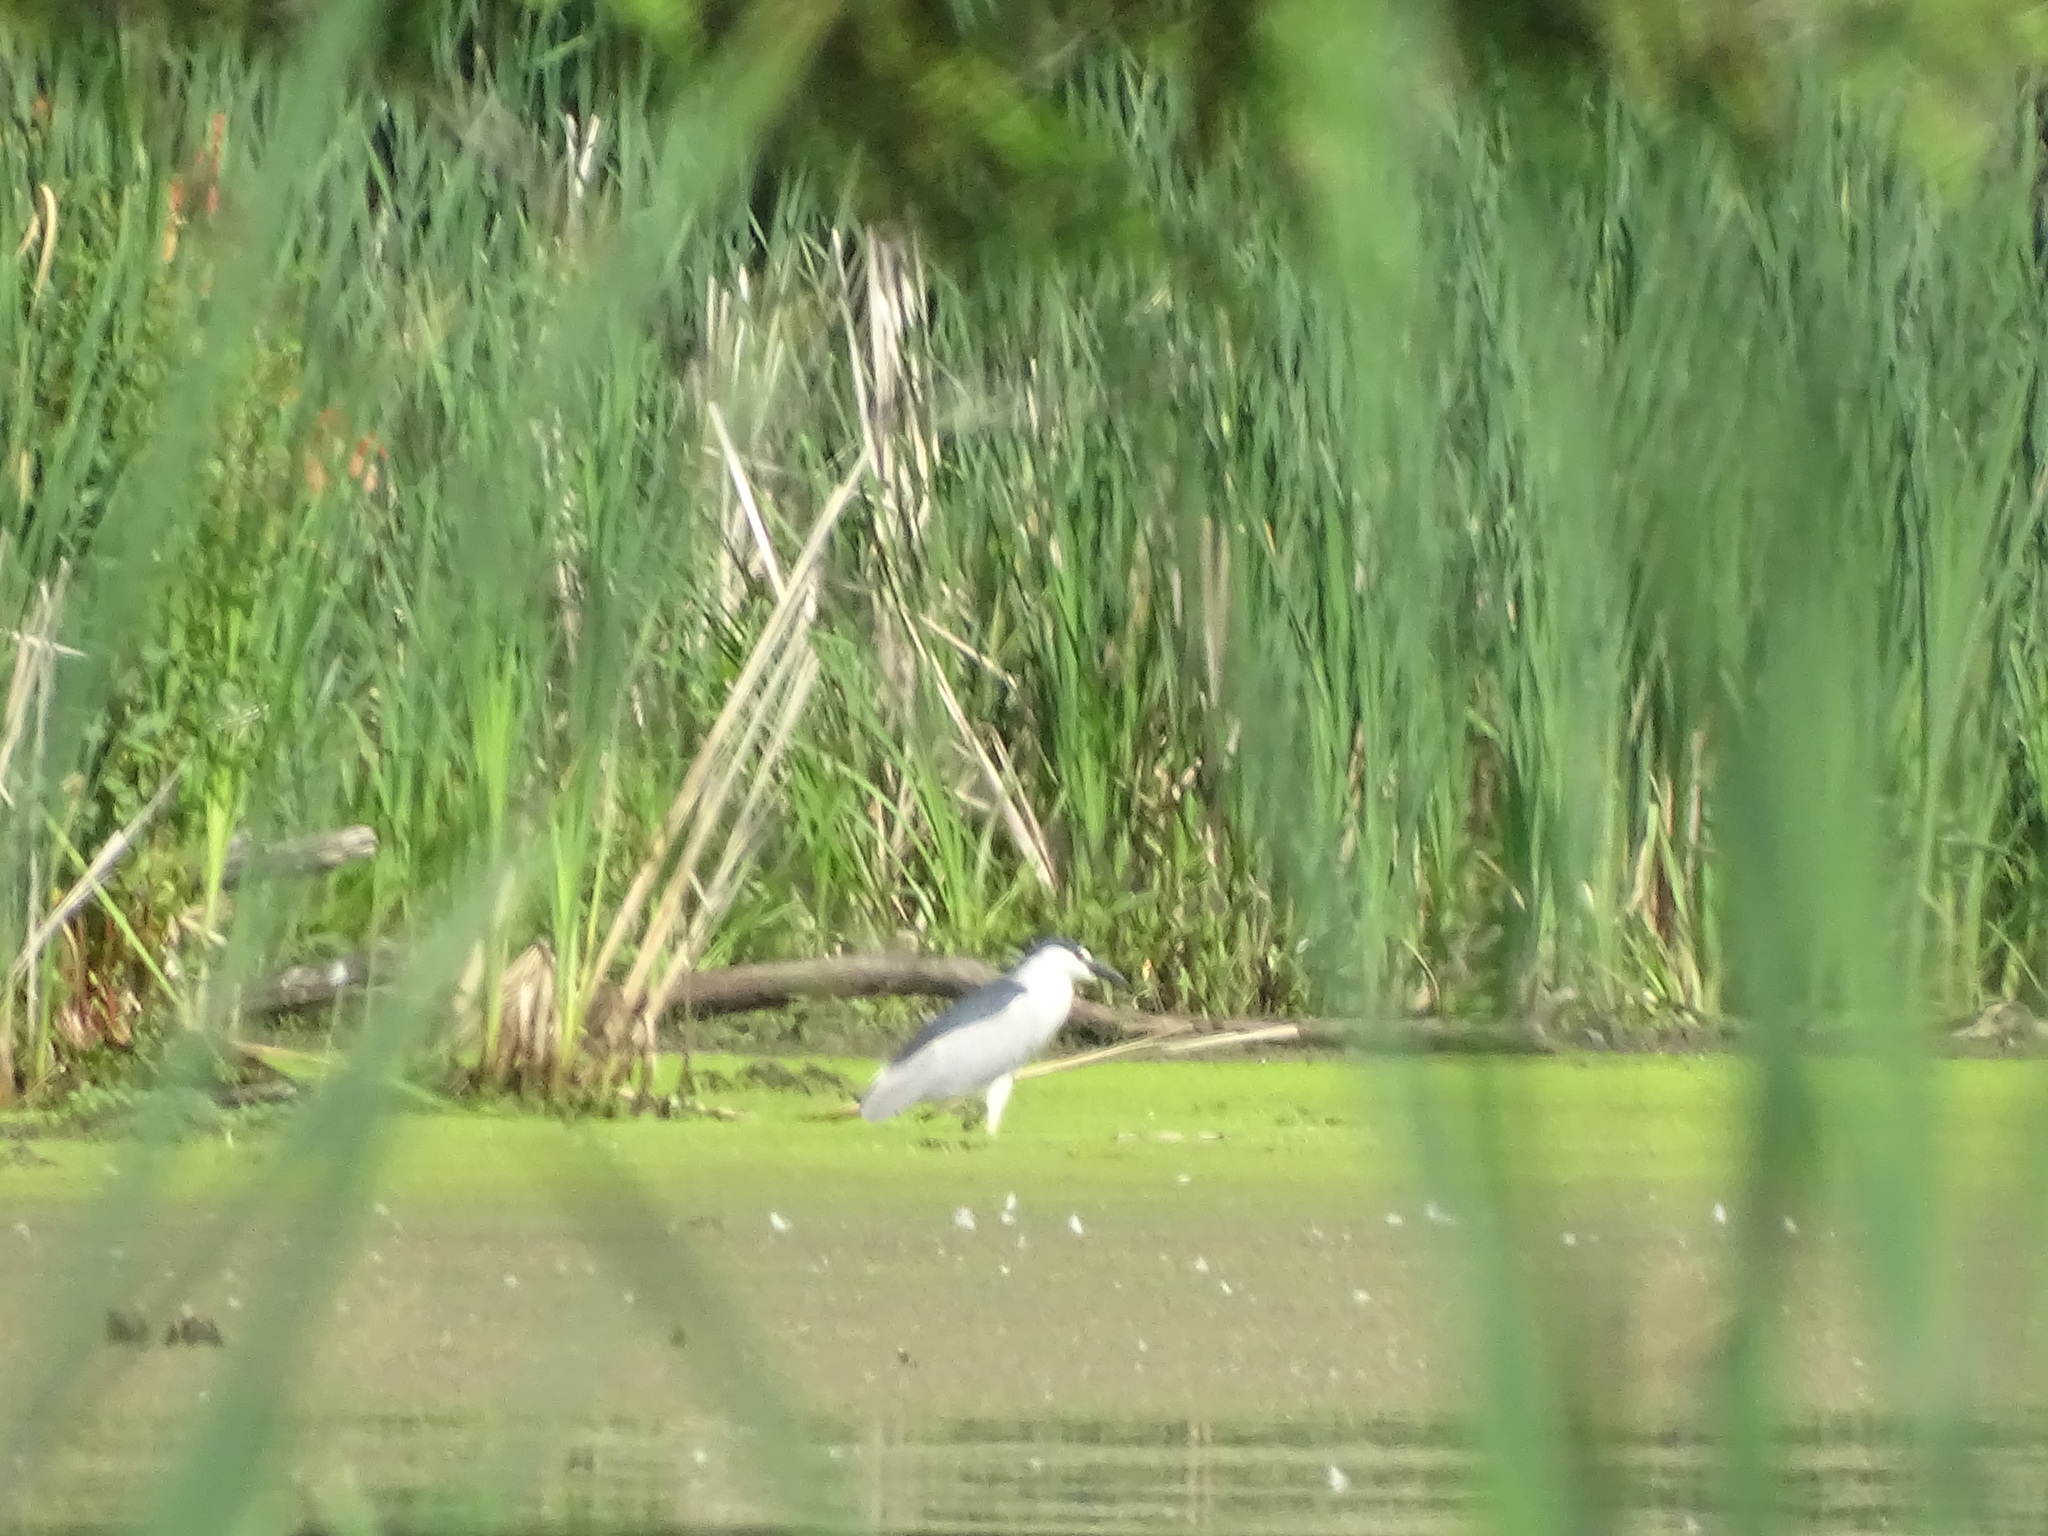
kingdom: Animalia
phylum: Chordata
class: Aves
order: Pelecaniformes
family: Ardeidae
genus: Nycticorax
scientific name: Nycticorax nycticorax
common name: Black-crowned night heron
